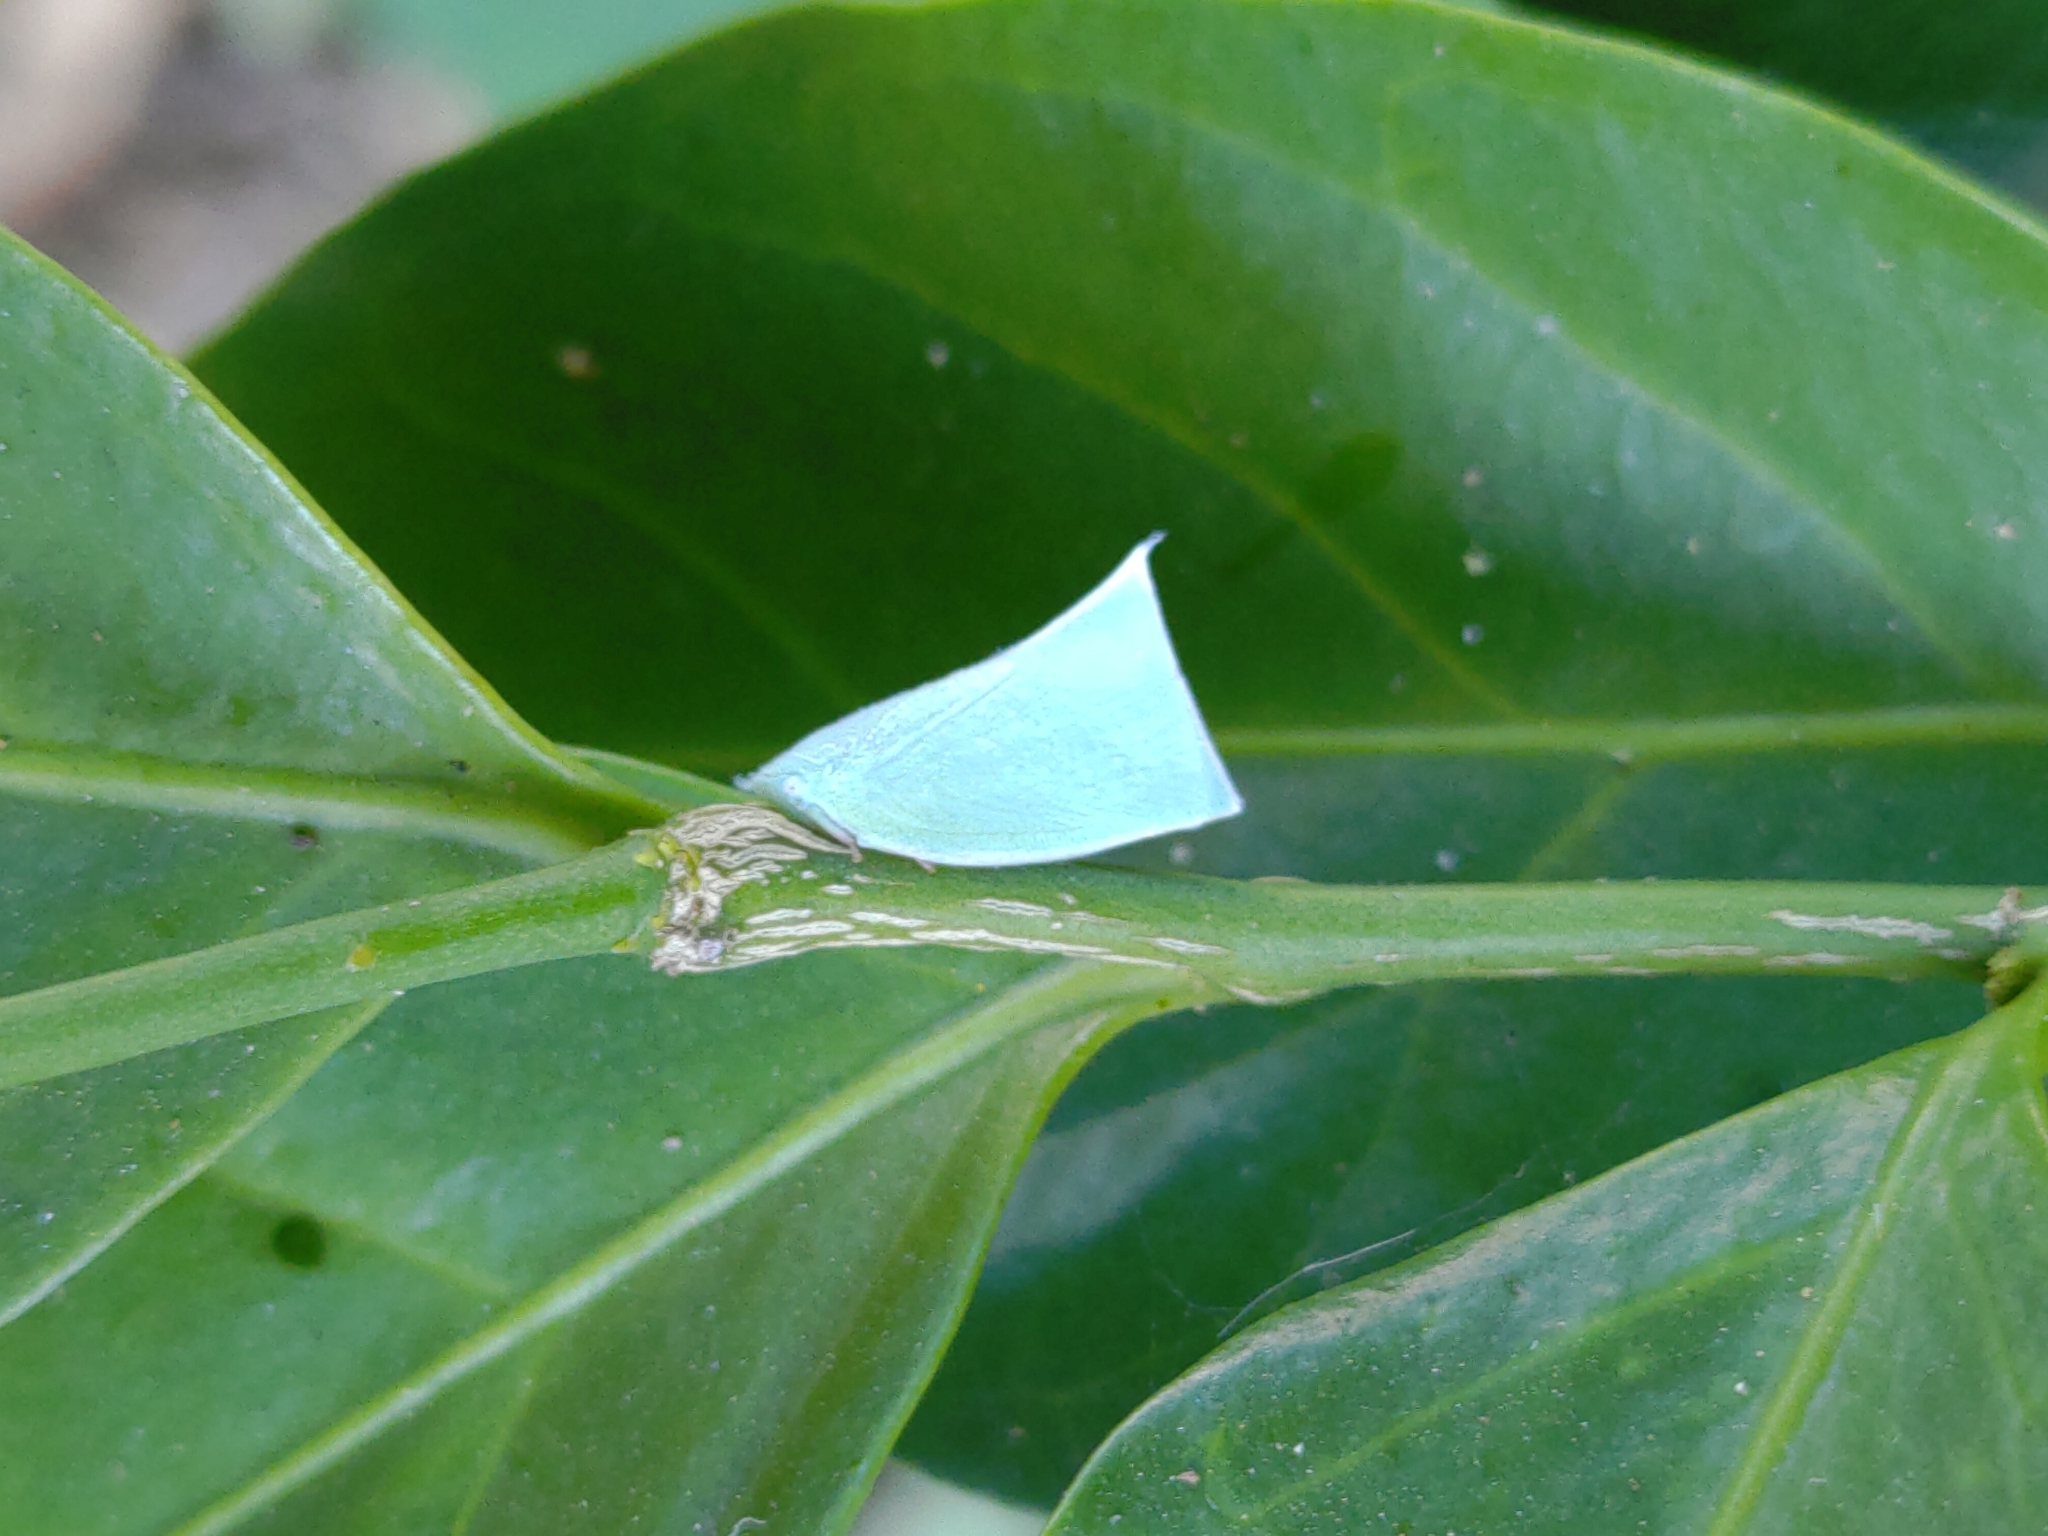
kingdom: Animalia
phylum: Arthropoda
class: Insecta
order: Hemiptera
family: Flatidae
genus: Phylliana
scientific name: Phylliana alba
